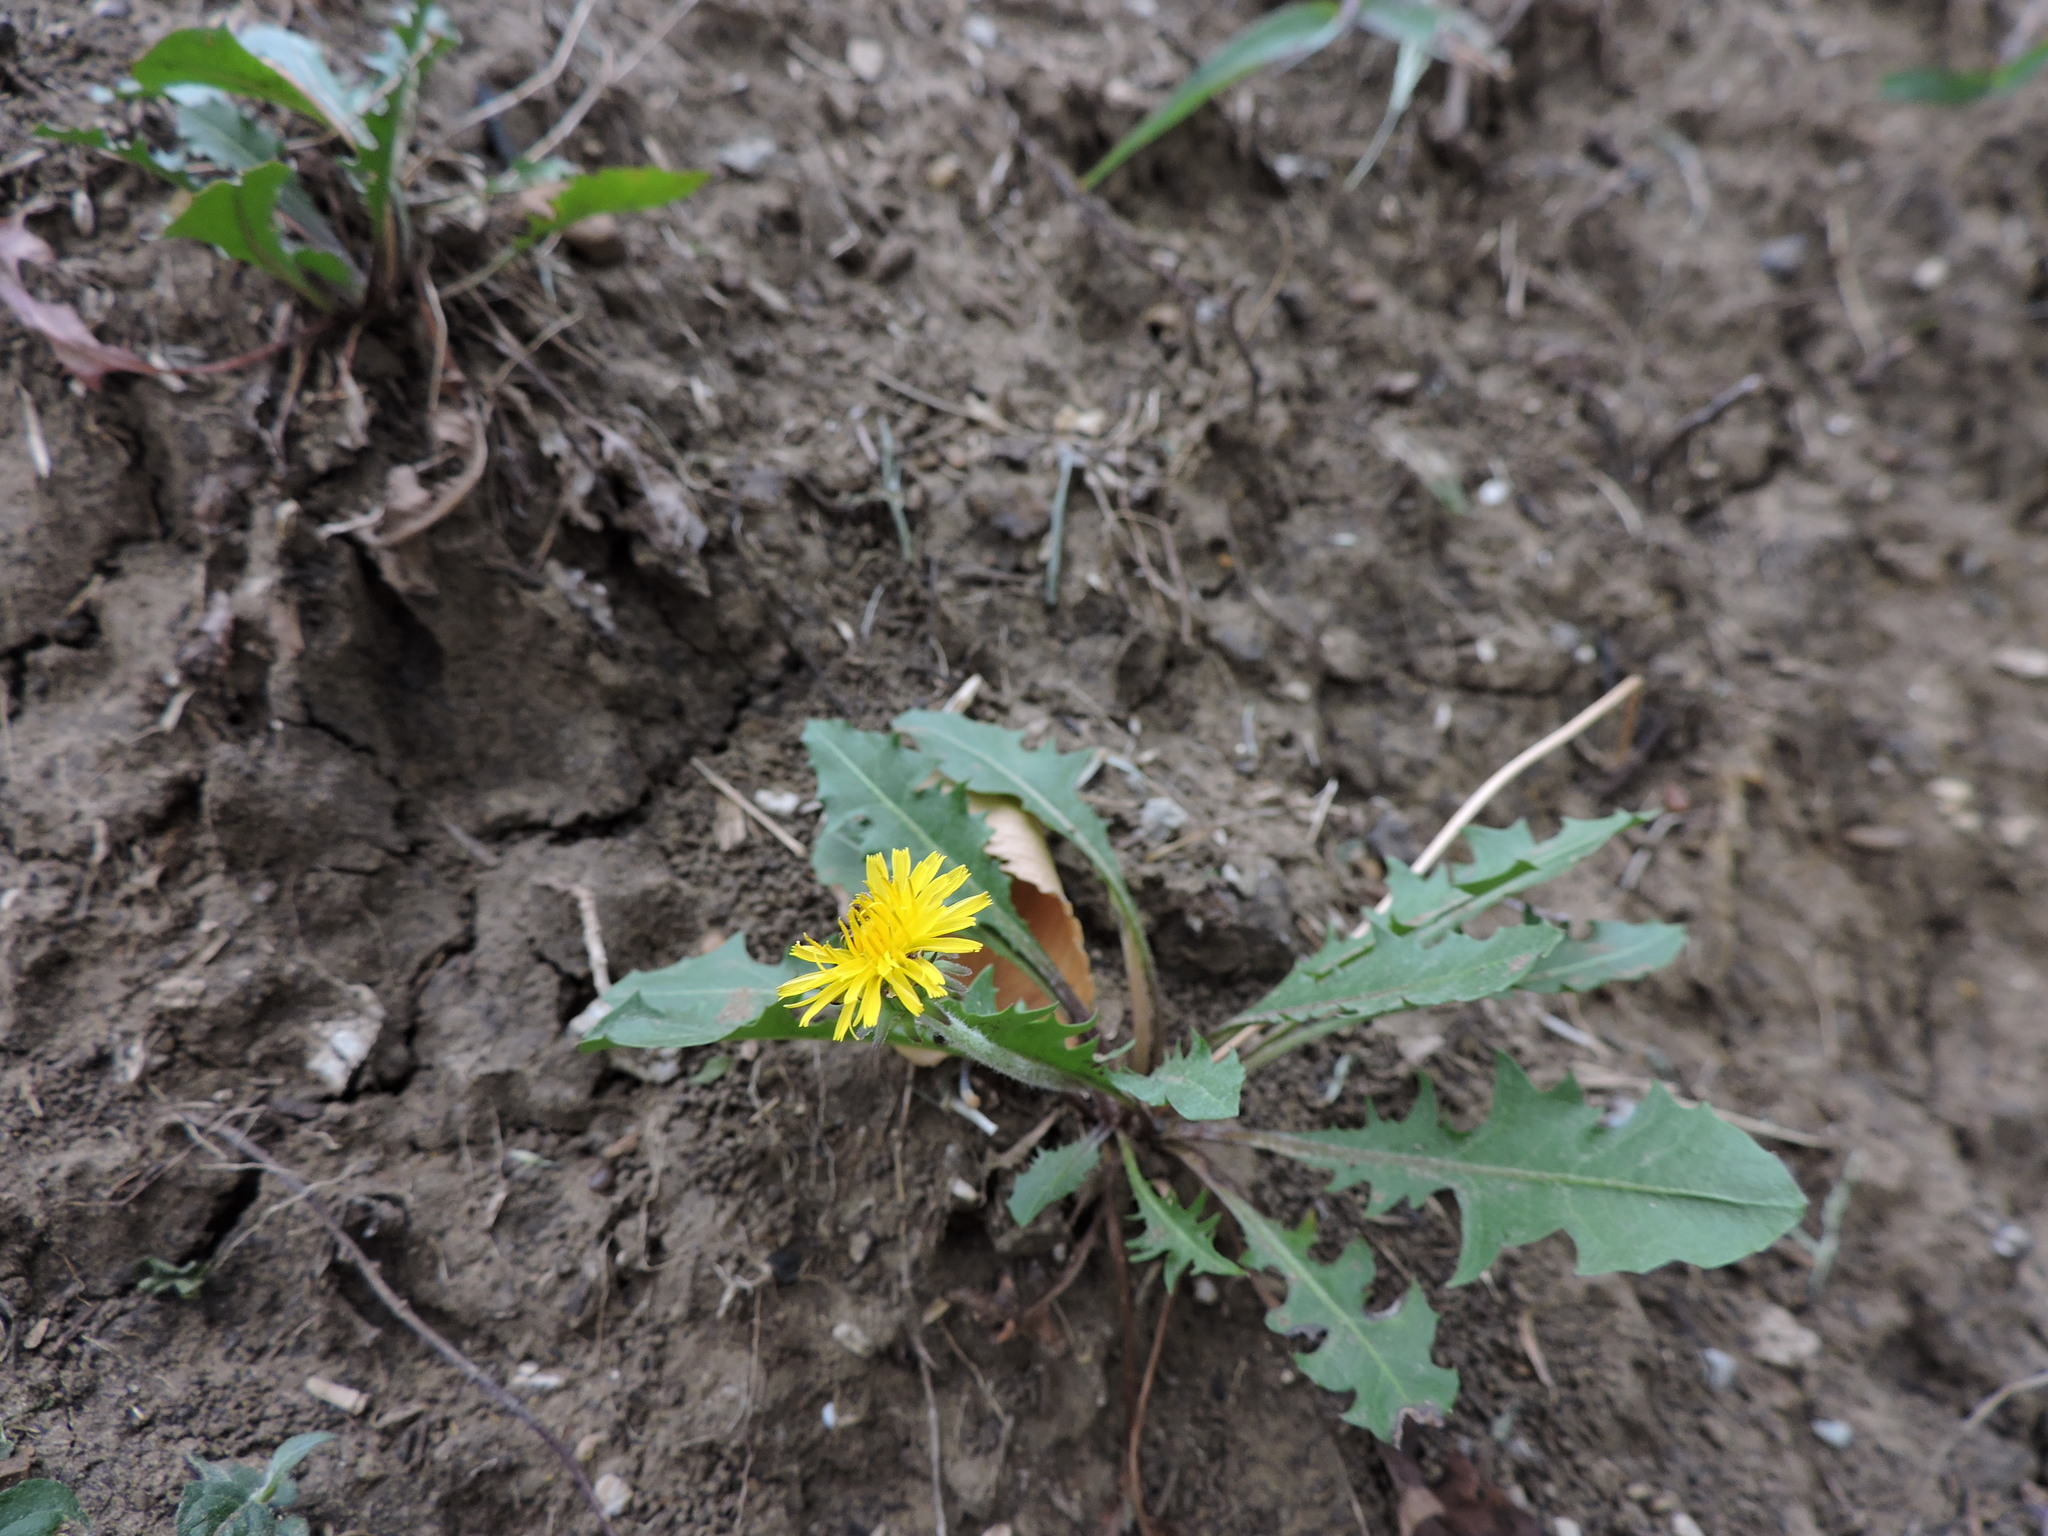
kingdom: Plantae
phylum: Tracheophyta
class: Magnoliopsida
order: Asterales
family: Asteraceae
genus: Taraxacum
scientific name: Taraxacum officinale
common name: Common dandelion
